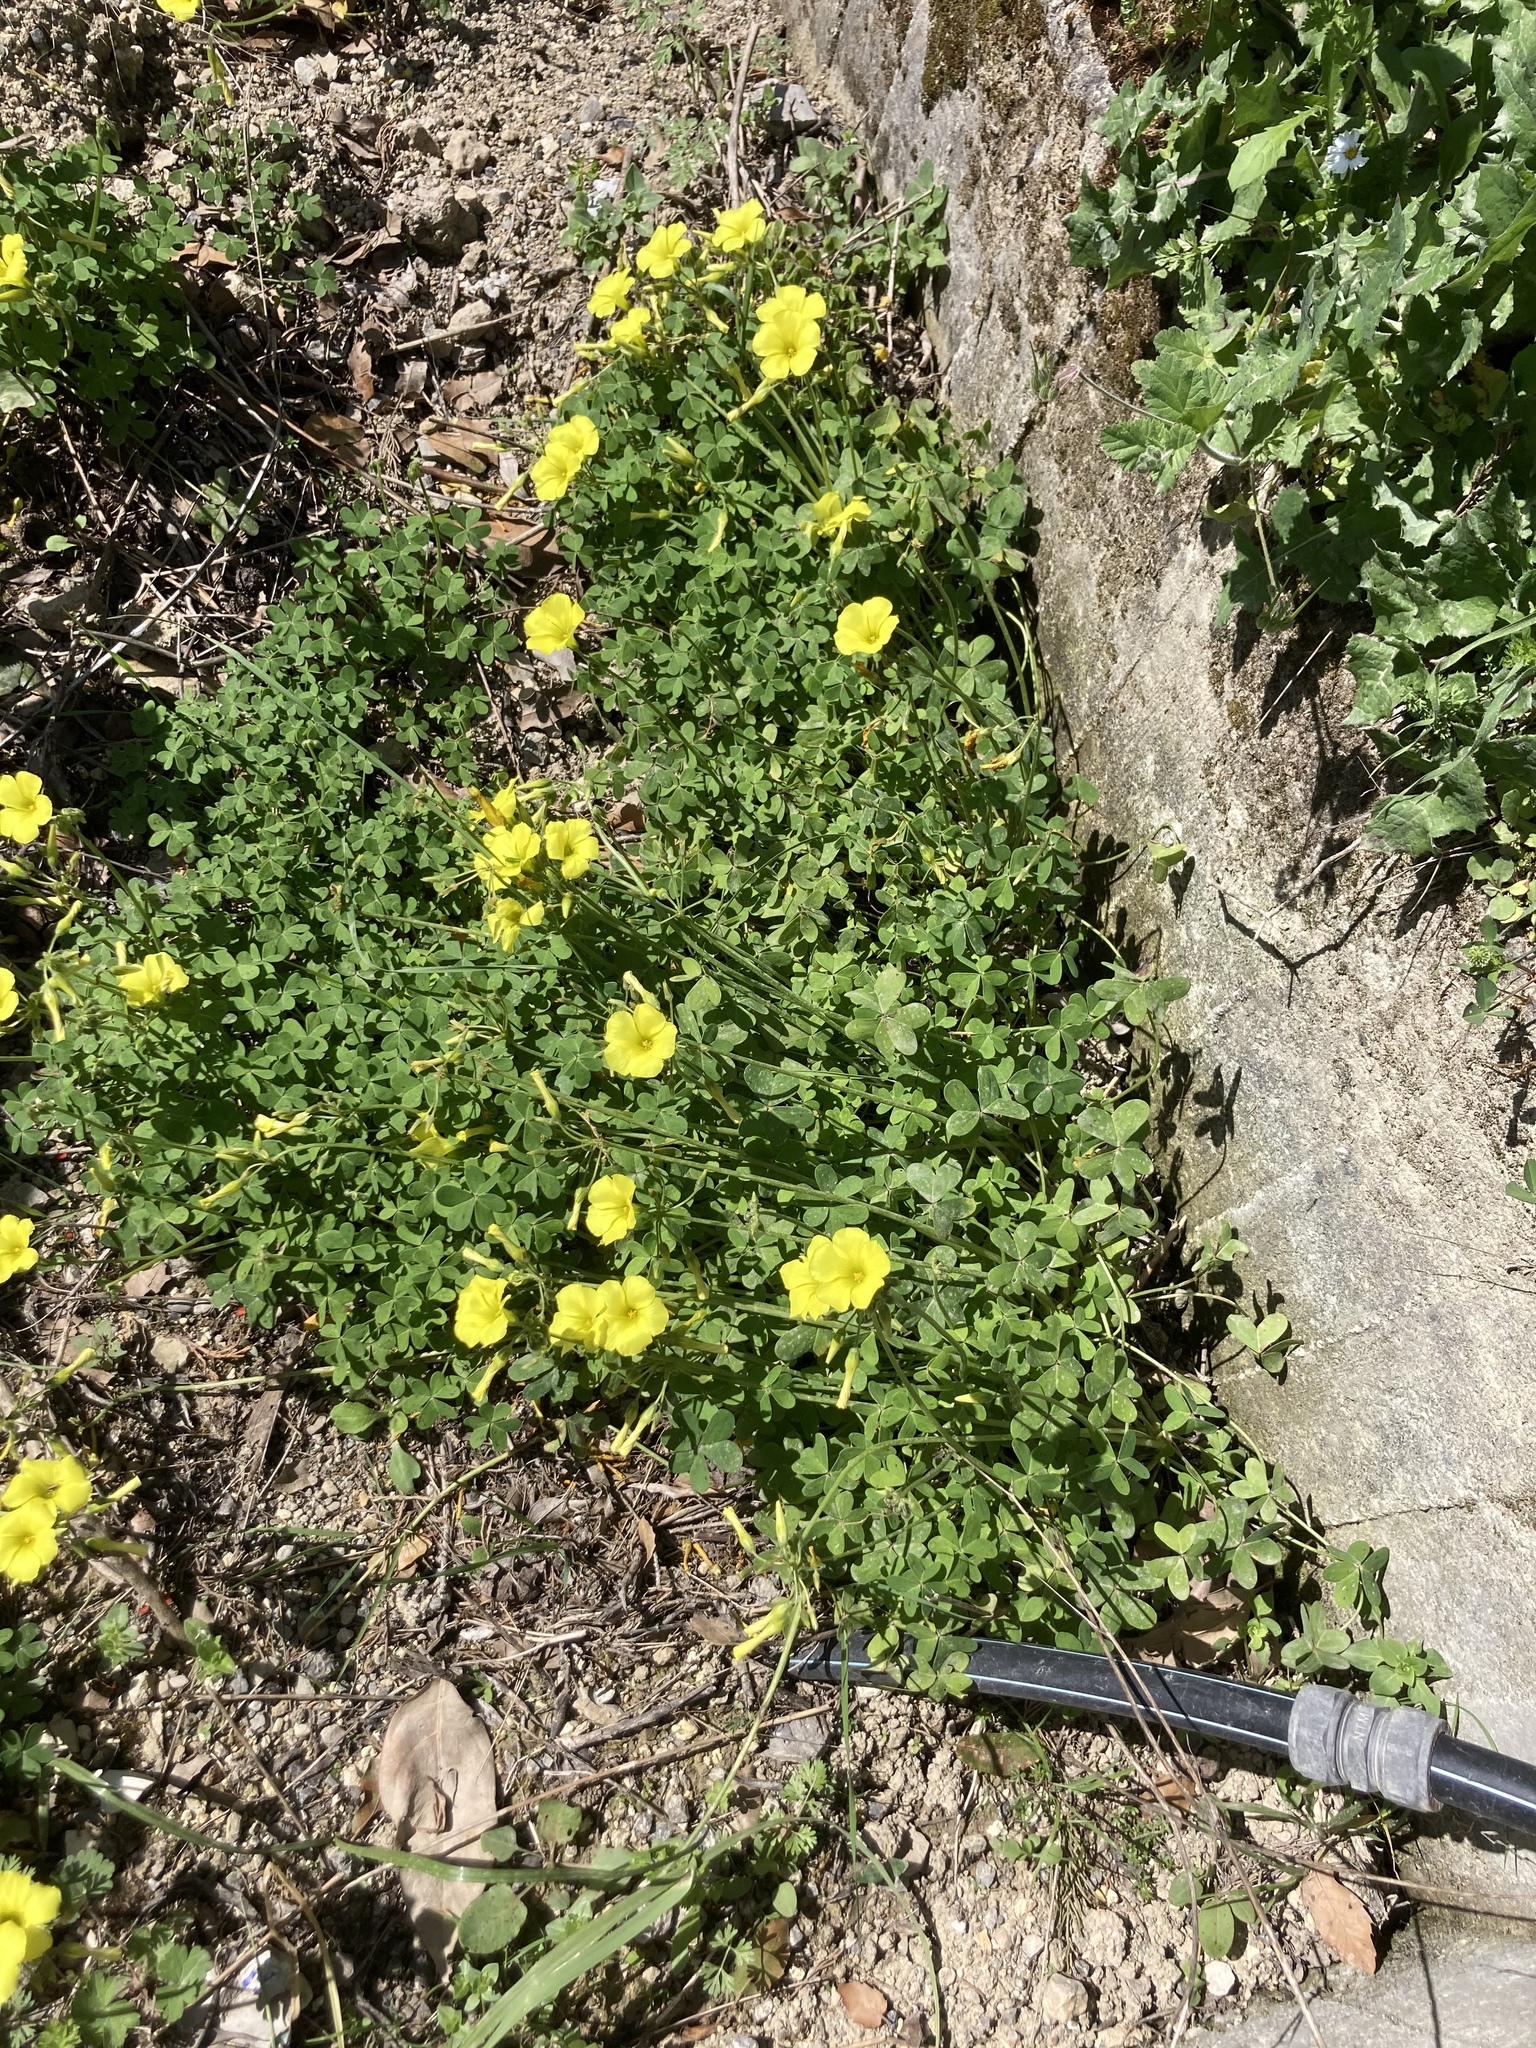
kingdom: Plantae
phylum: Tracheophyta
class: Magnoliopsida
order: Oxalidales
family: Oxalidaceae
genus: Oxalis
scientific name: Oxalis pes-caprae
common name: Bermuda-buttercup
